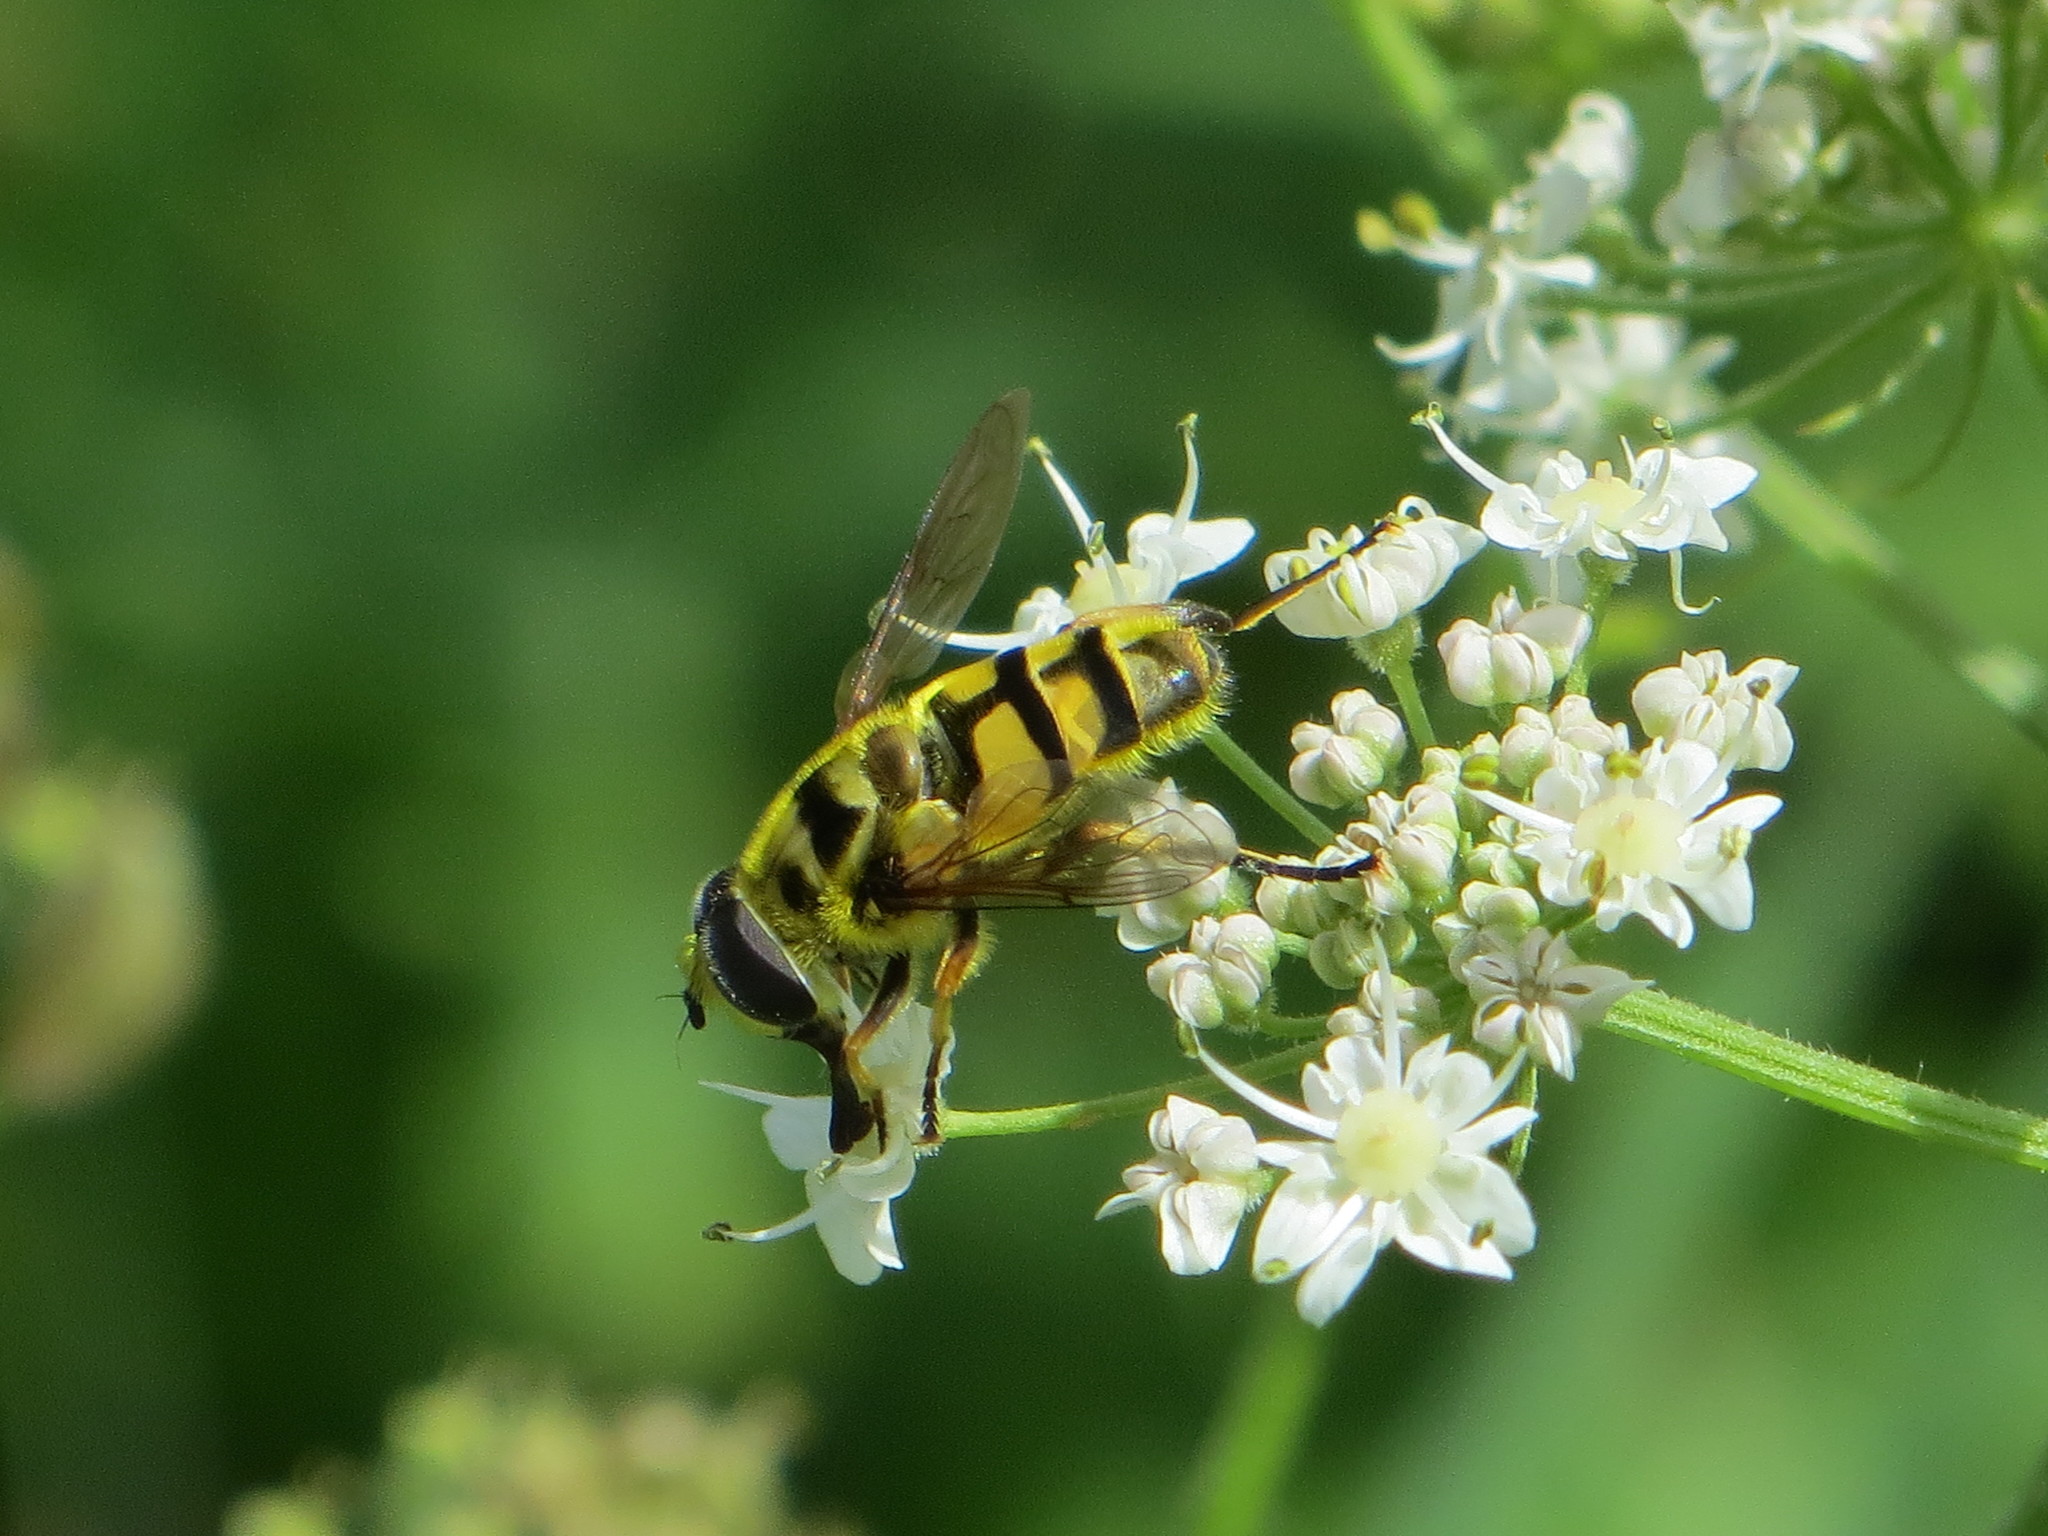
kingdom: Animalia
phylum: Arthropoda
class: Insecta
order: Diptera
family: Syrphidae
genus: Myathropa
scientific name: Myathropa florea
